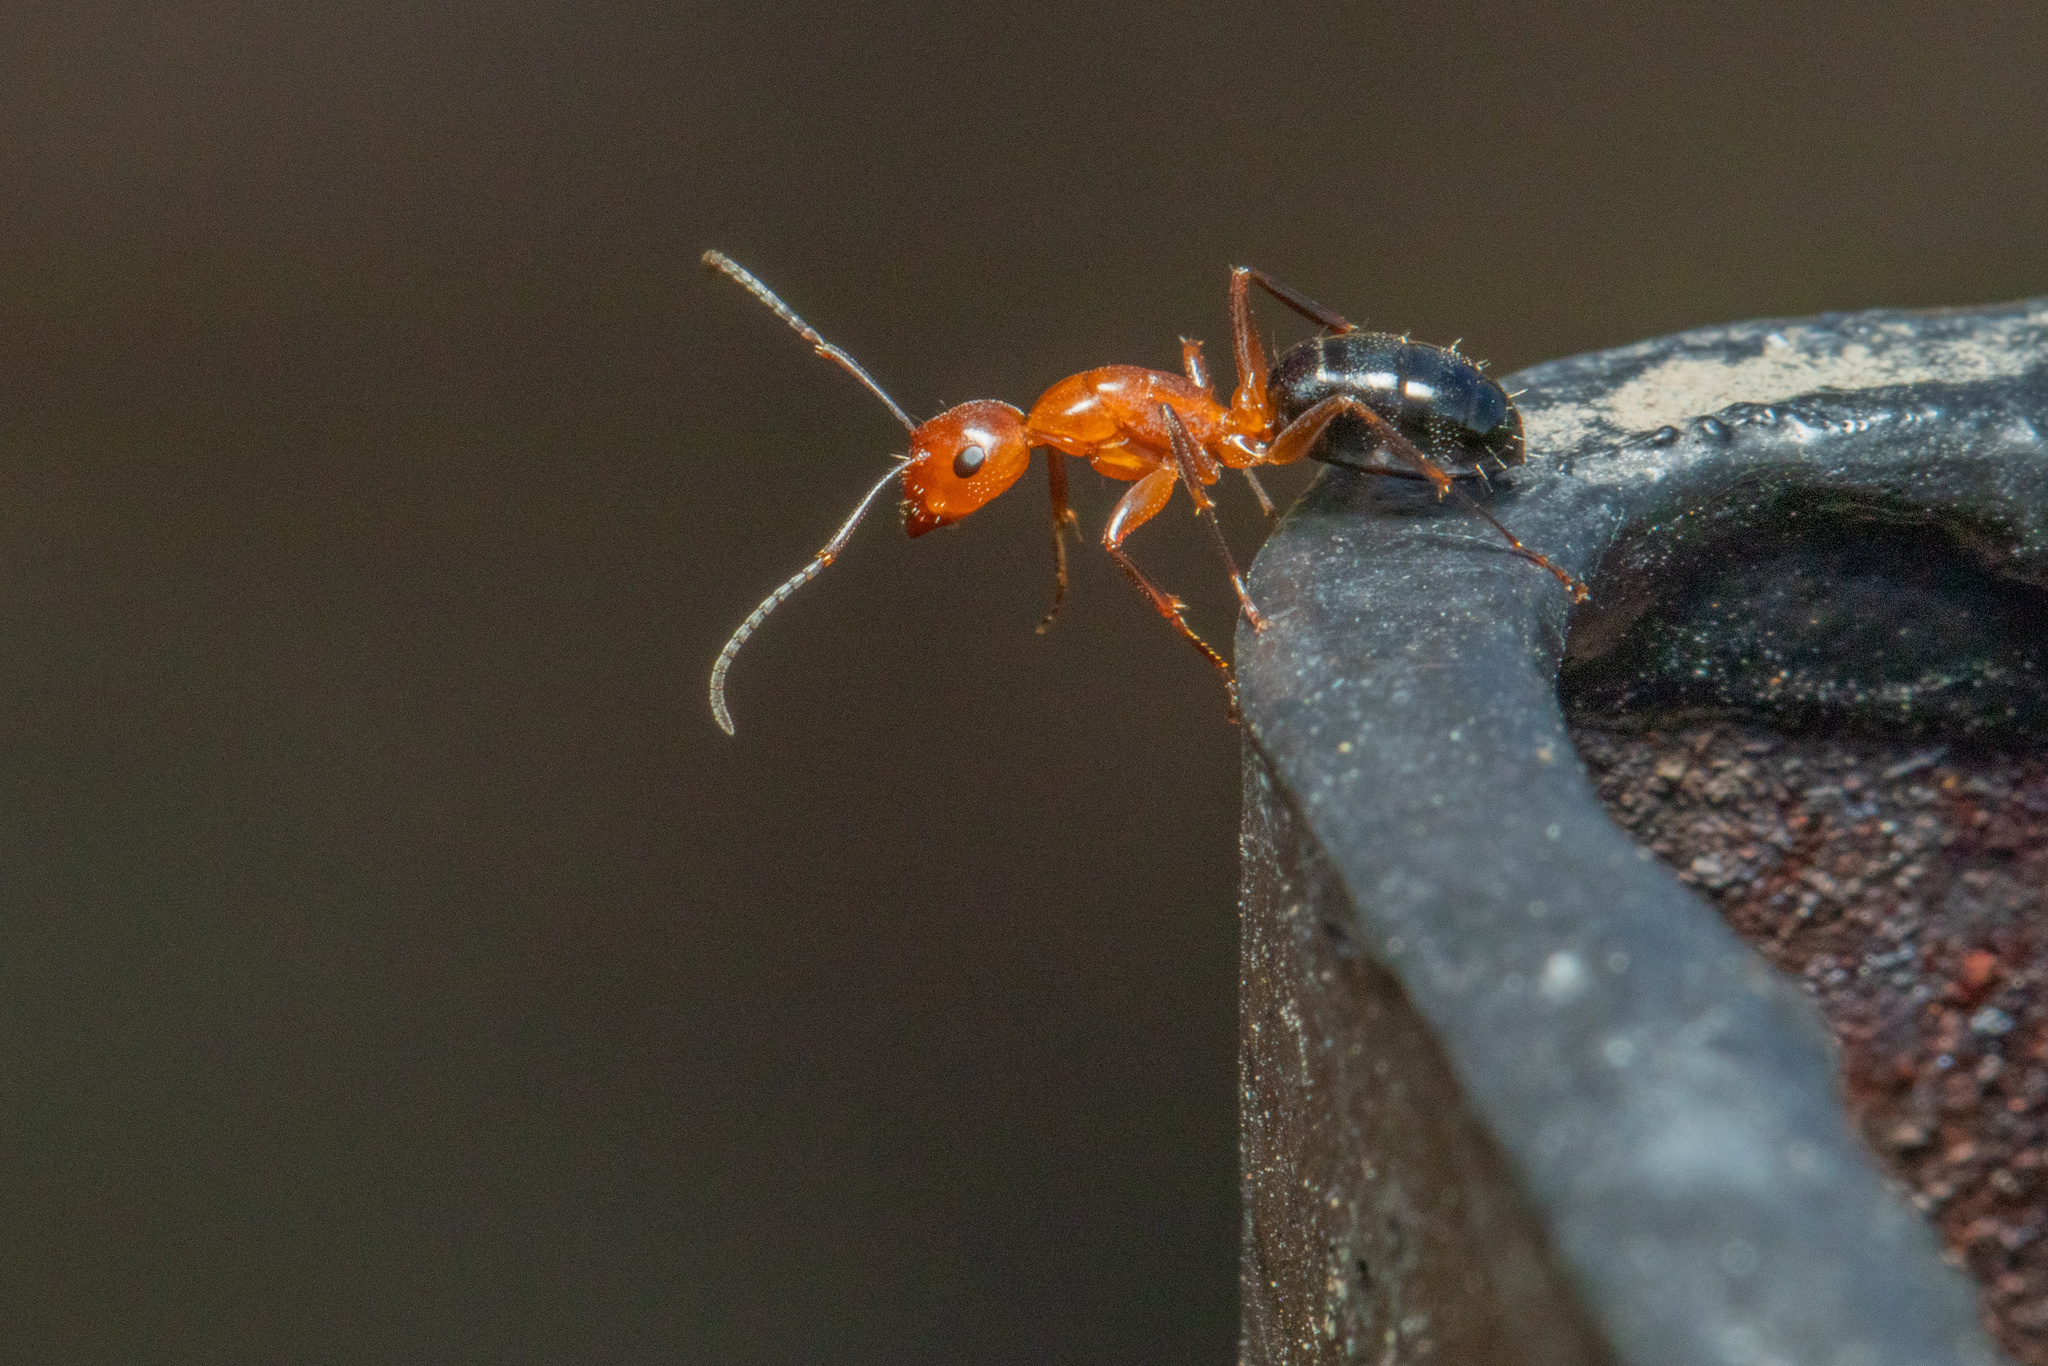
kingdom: Animalia
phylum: Arthropoda
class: Insecta
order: Hymenoptera
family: Formicidae
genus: Camponotus
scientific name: Camponotus discolor
